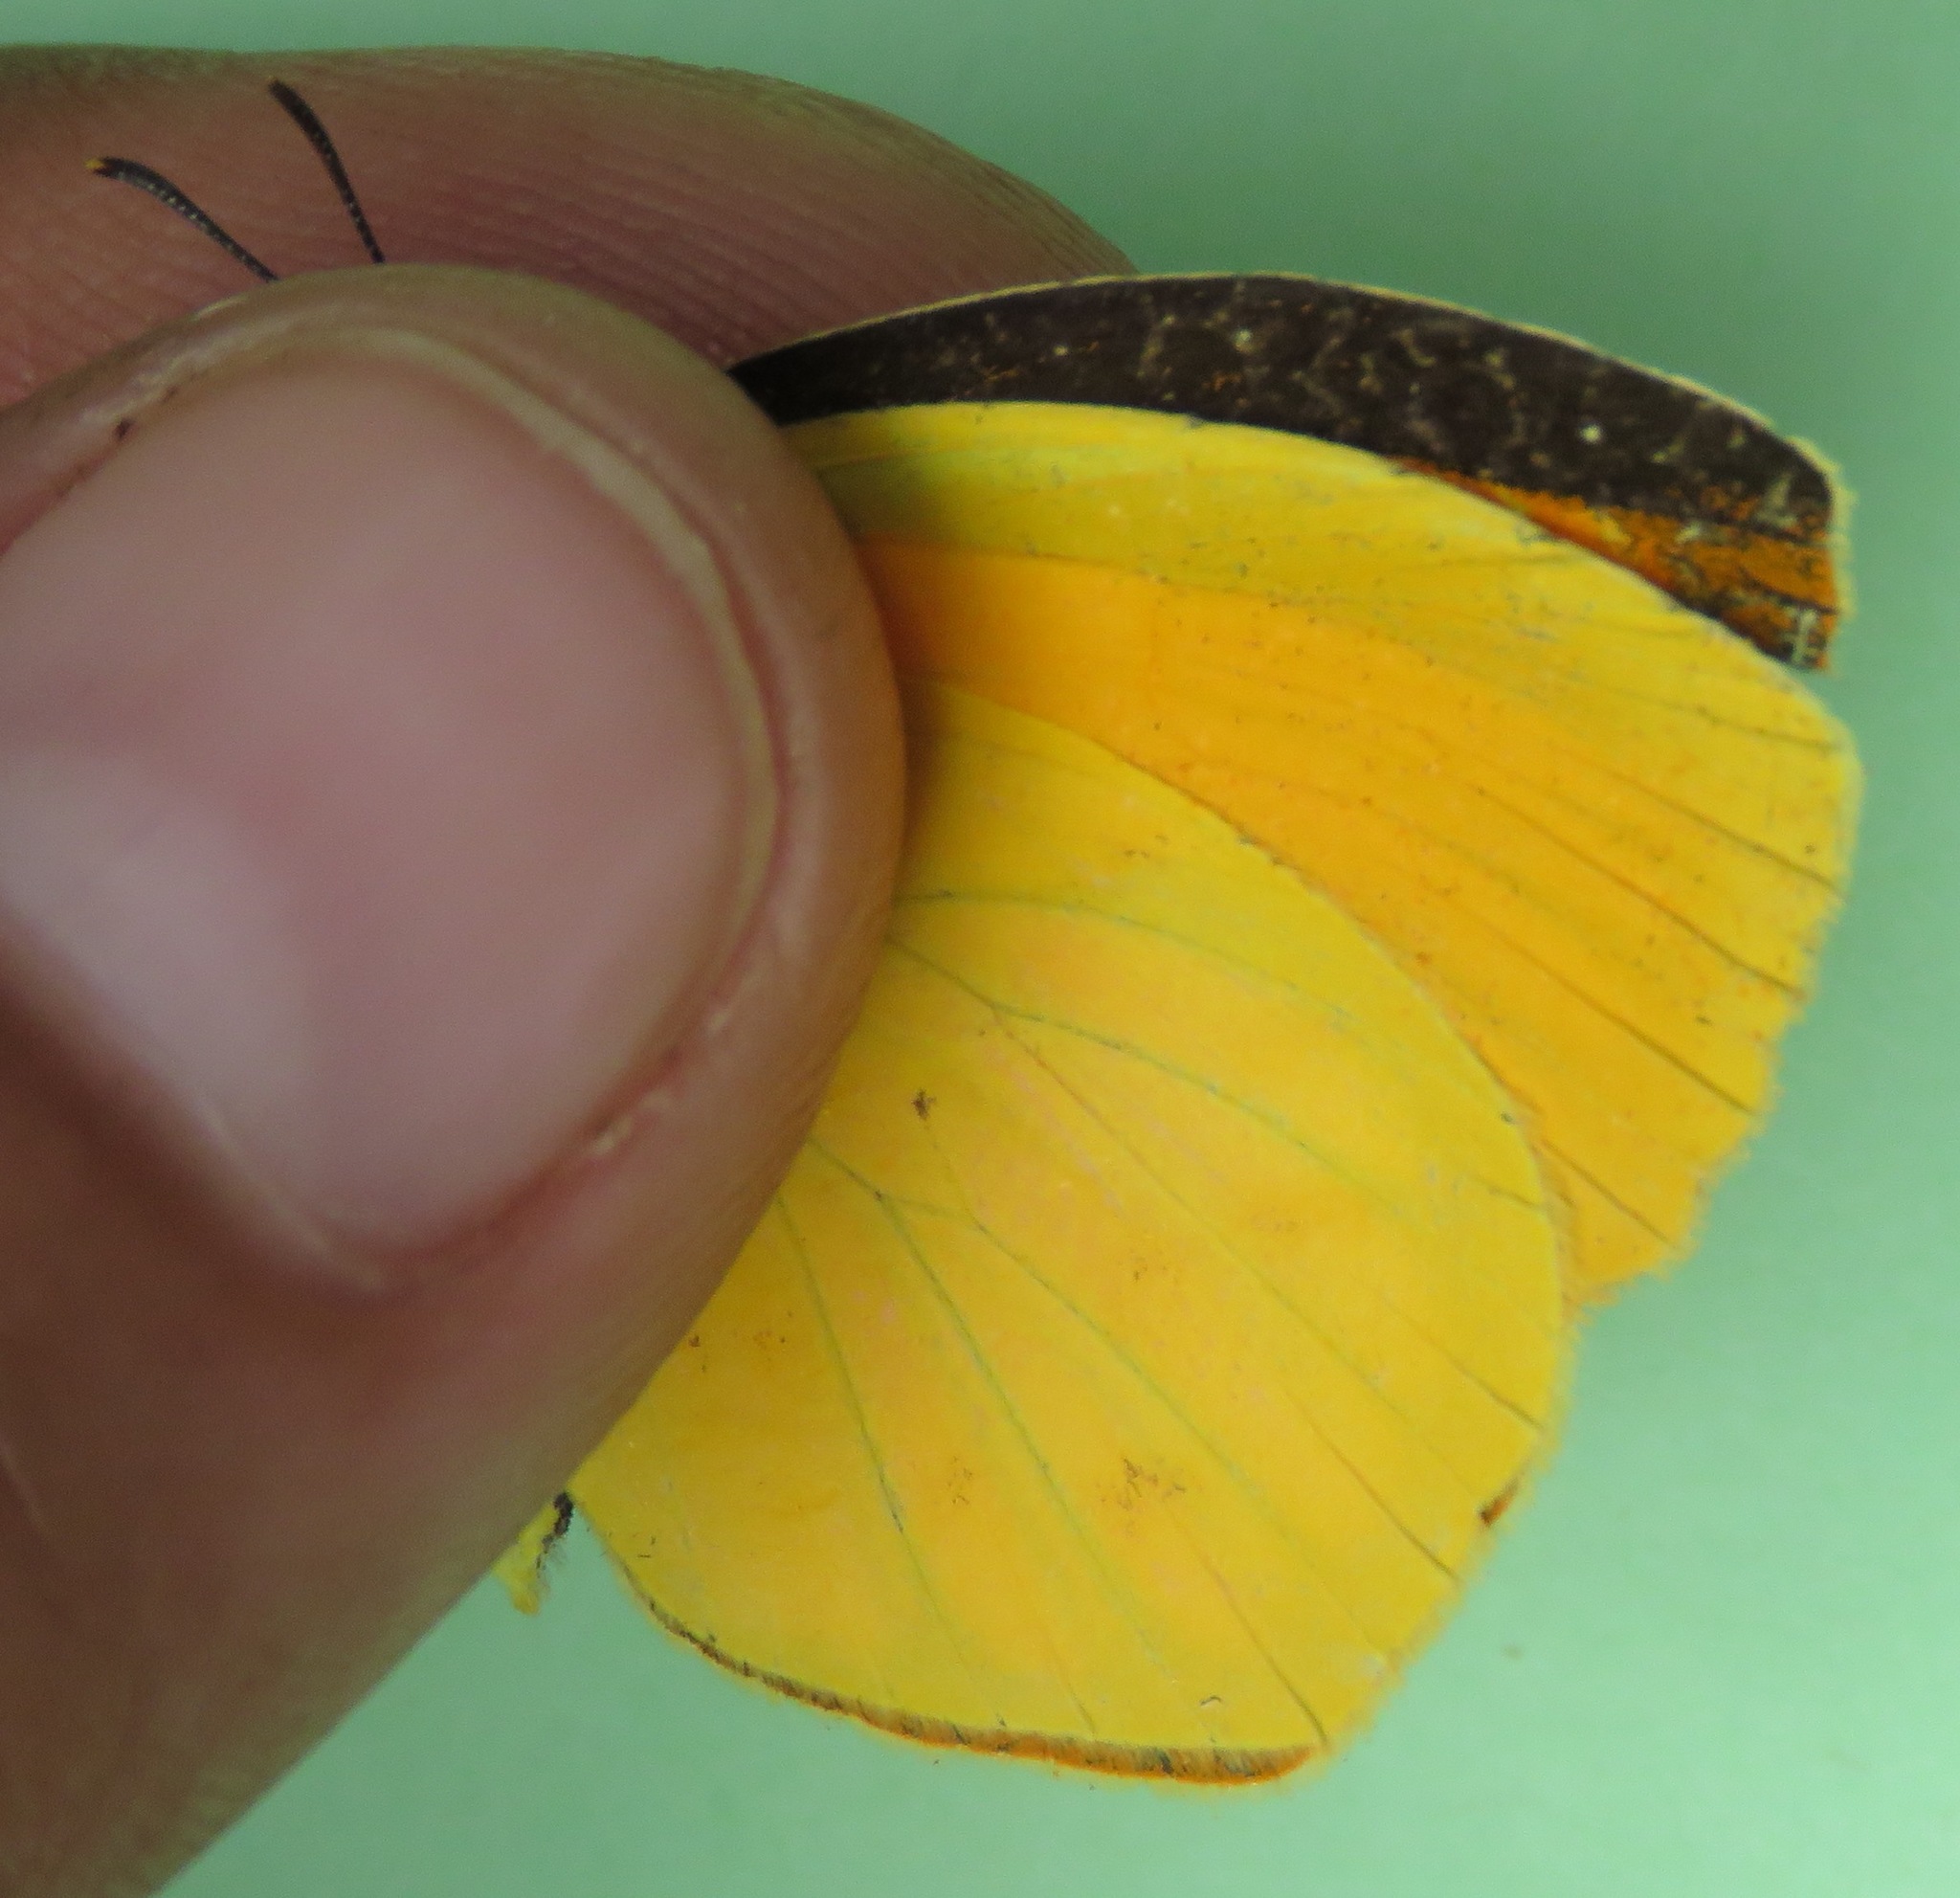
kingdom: Animalia
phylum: Arthropoda
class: Insecta
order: Lepidoptera
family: Pieridae
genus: Pyrisitia
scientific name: Pyrisitia proterpia
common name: Tailed orange
